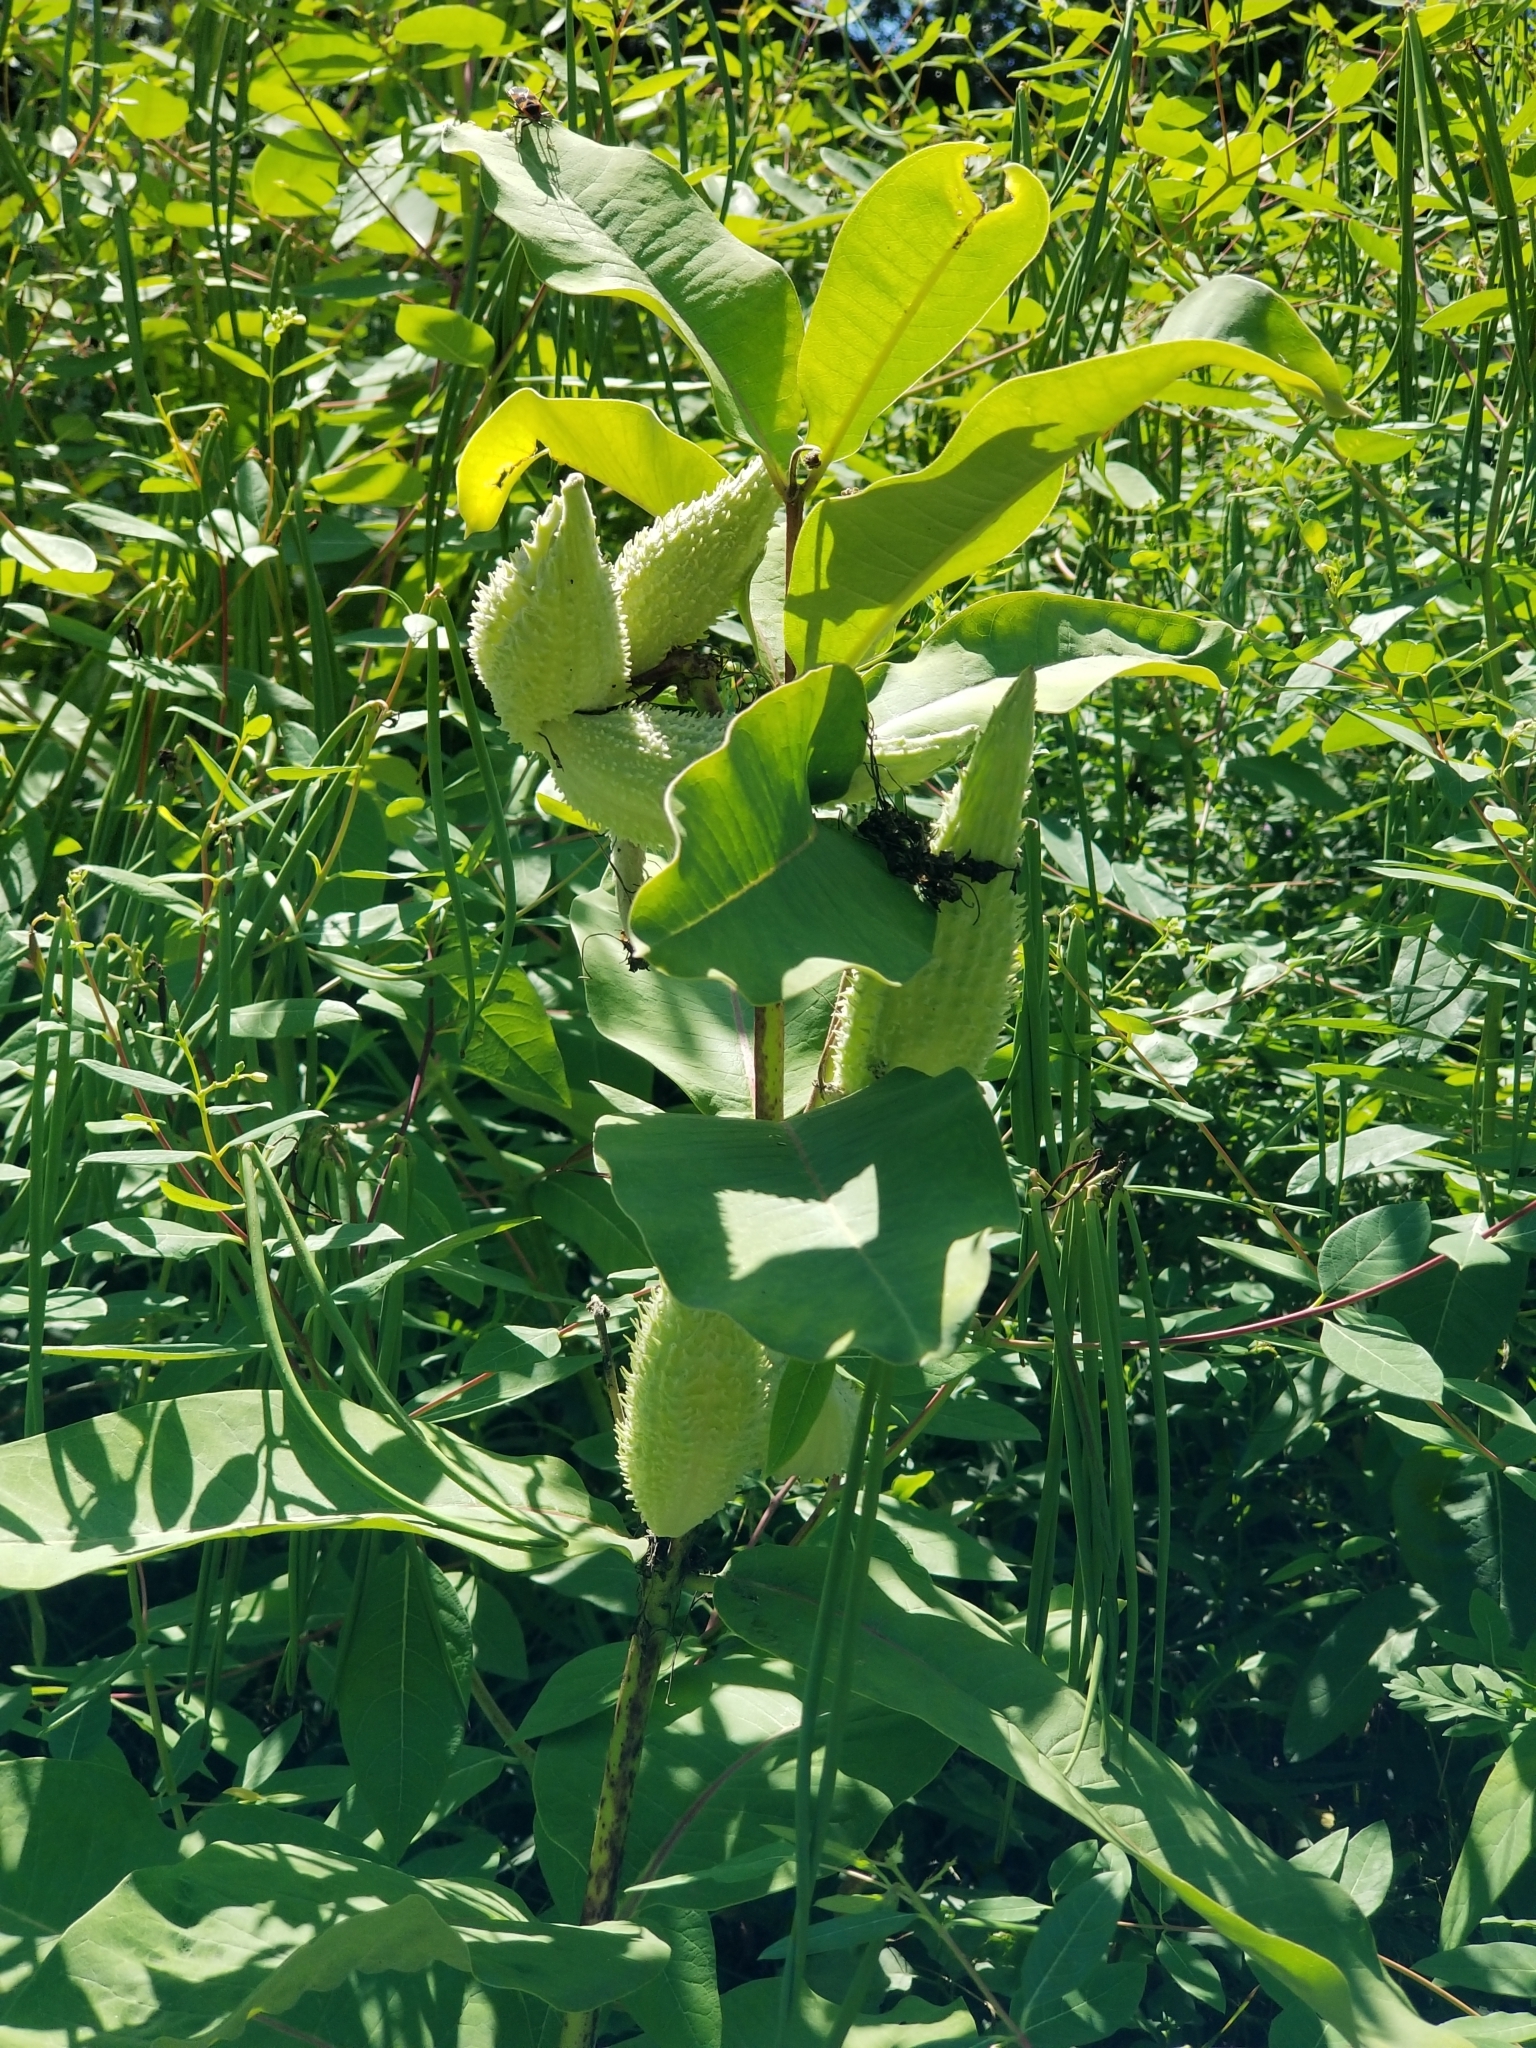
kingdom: Plantae
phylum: Tracheophyta
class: Magnoliopsida
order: Gentianales
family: Apocynaceae
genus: Asclepias
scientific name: Asclepias syriaca
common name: Common milkweed
